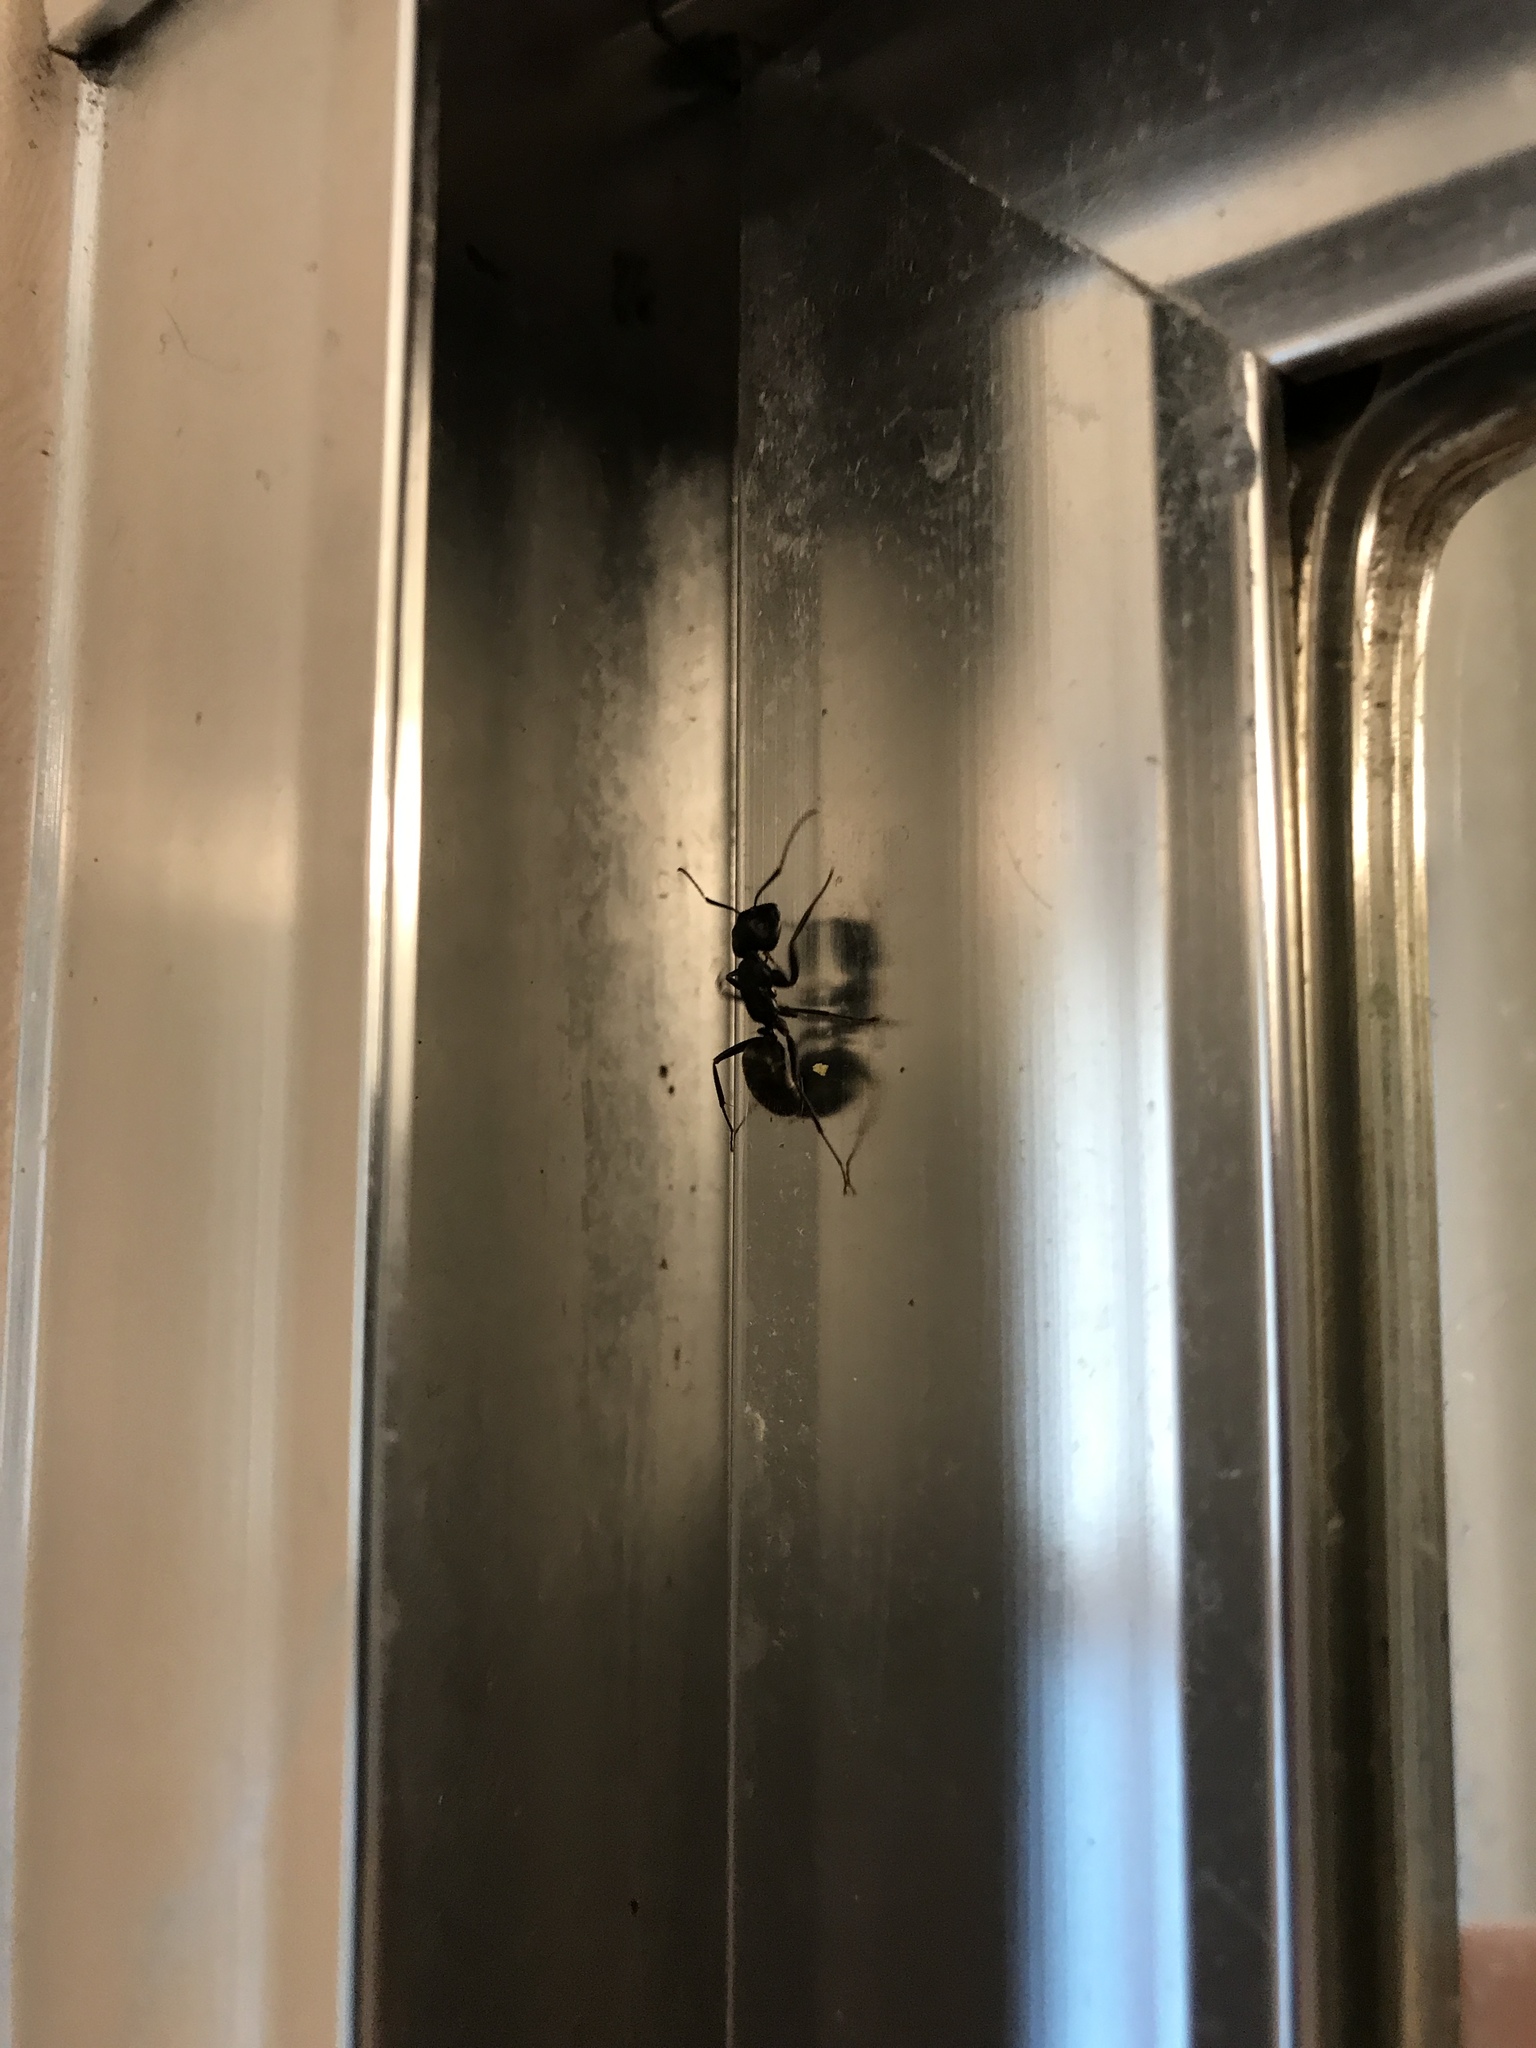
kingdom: Animalia
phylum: Arthropoda
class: Insecta
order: Hymenoptera
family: Formicidae
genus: Camponotus
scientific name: Camponotus pennsylvanicus
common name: Black carpenter ant
